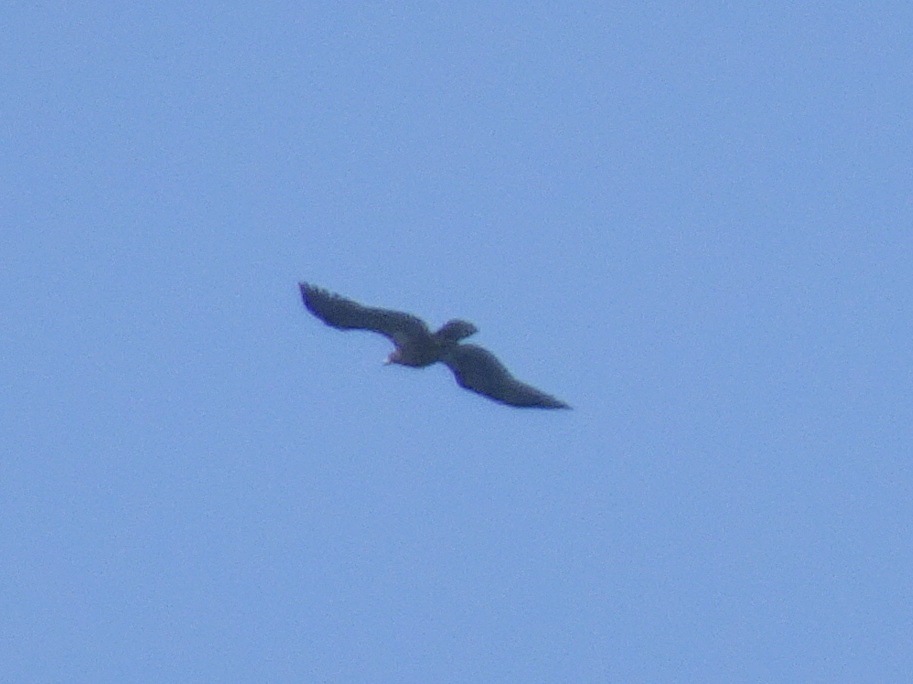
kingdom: Animalia
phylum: Chordata
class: Aves
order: Accipitriformes
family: Accipitridae
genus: Haliaeetus
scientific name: Haliaeetus leucocephalus
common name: Bald eagle
